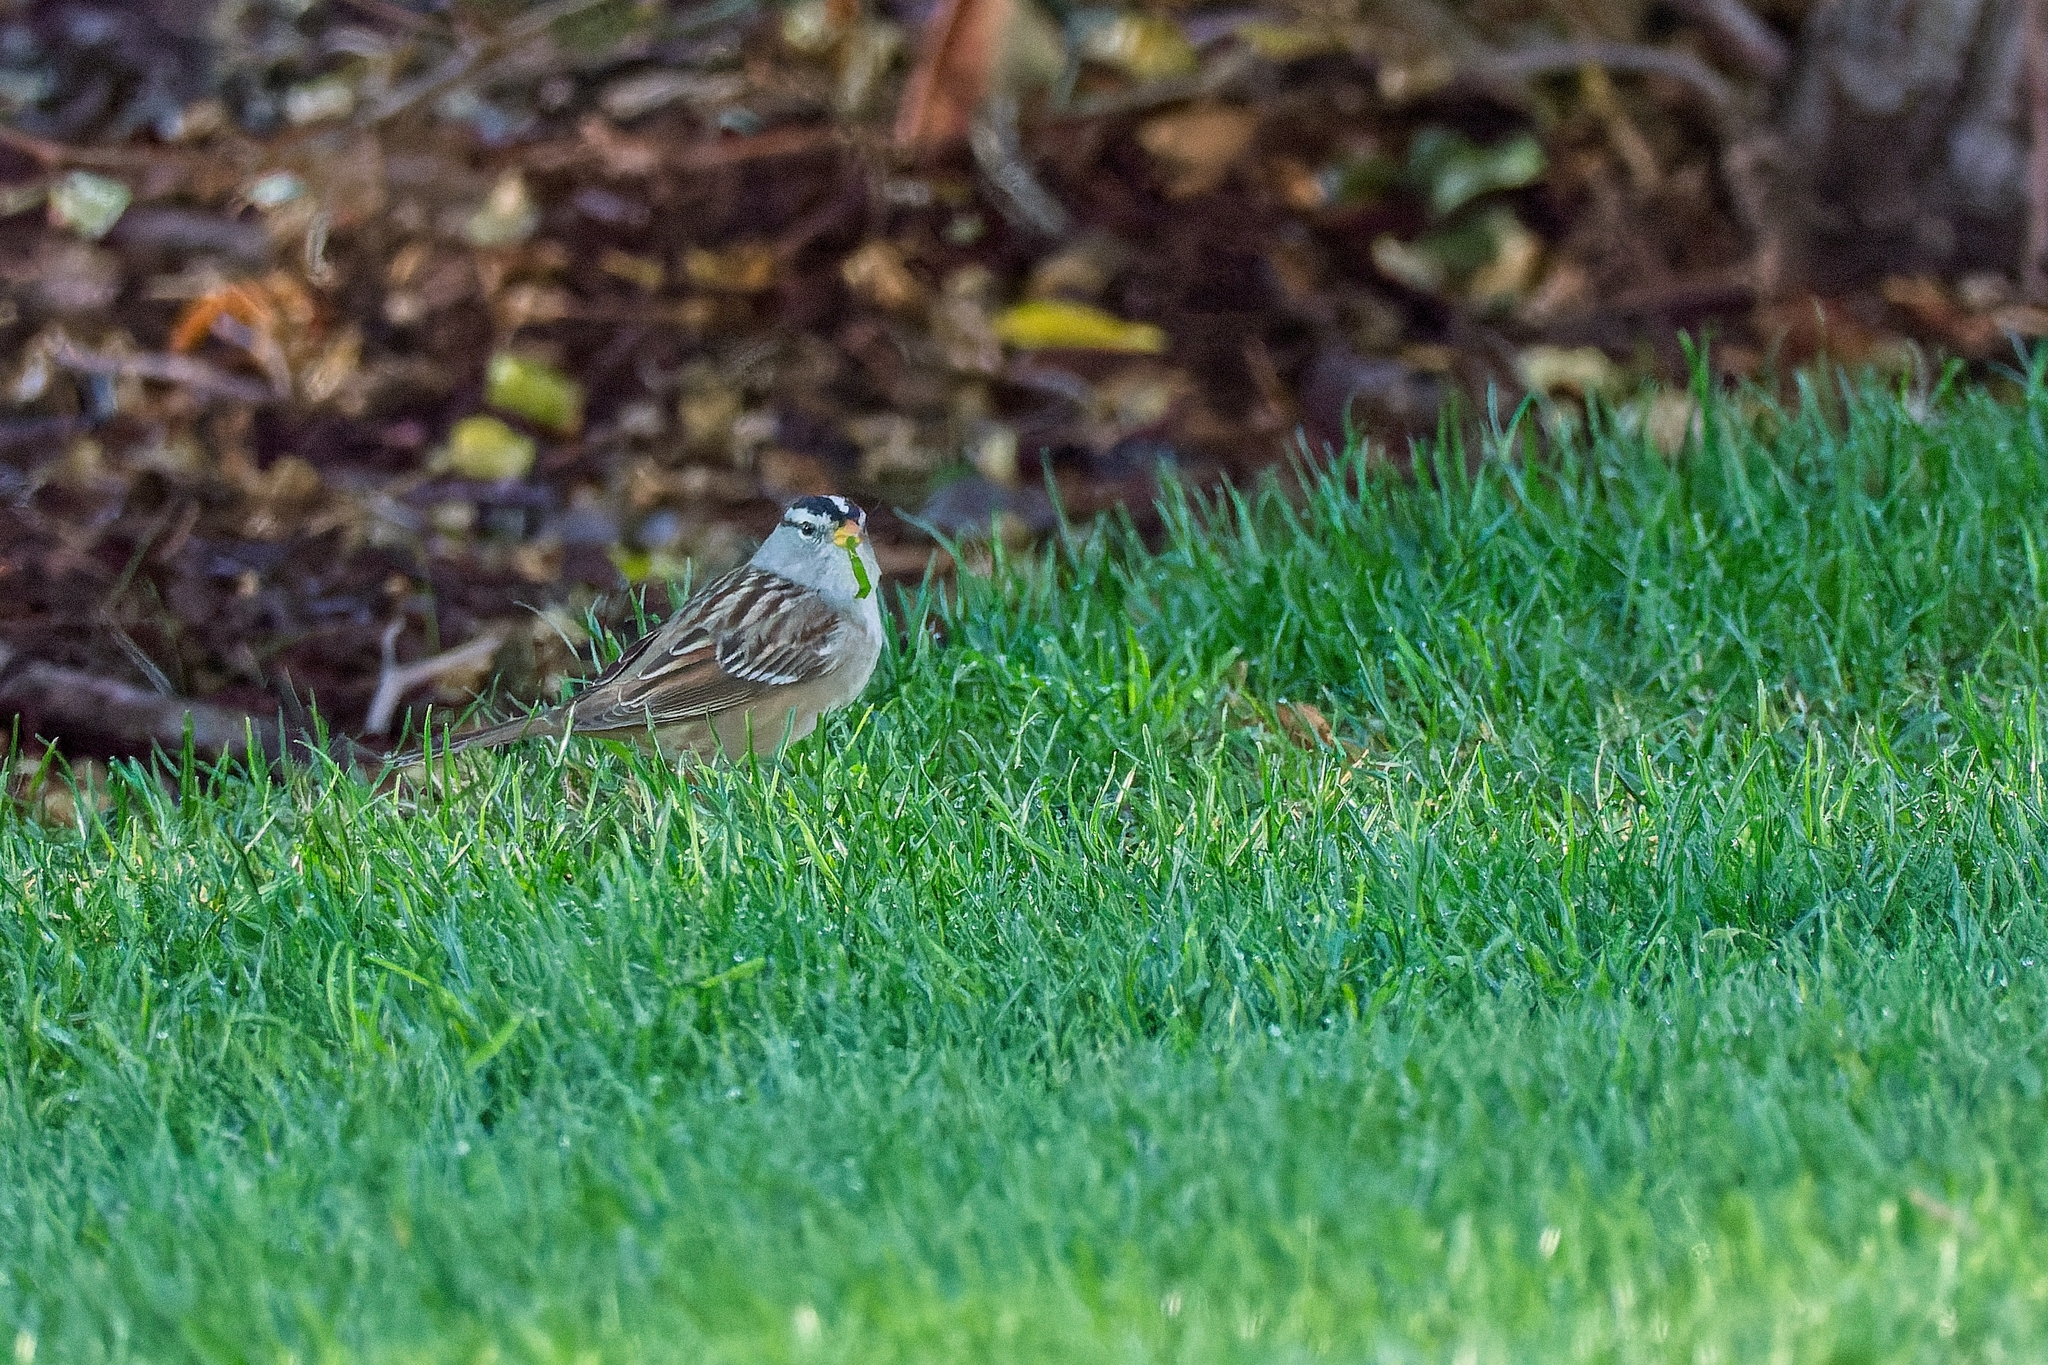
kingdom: Animalia
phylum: Chordata
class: Aves
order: Passeriformes
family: Passerellidae
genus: Zonotrichia
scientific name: Zonotrichia leucophrys
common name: White-crowned sparrow
